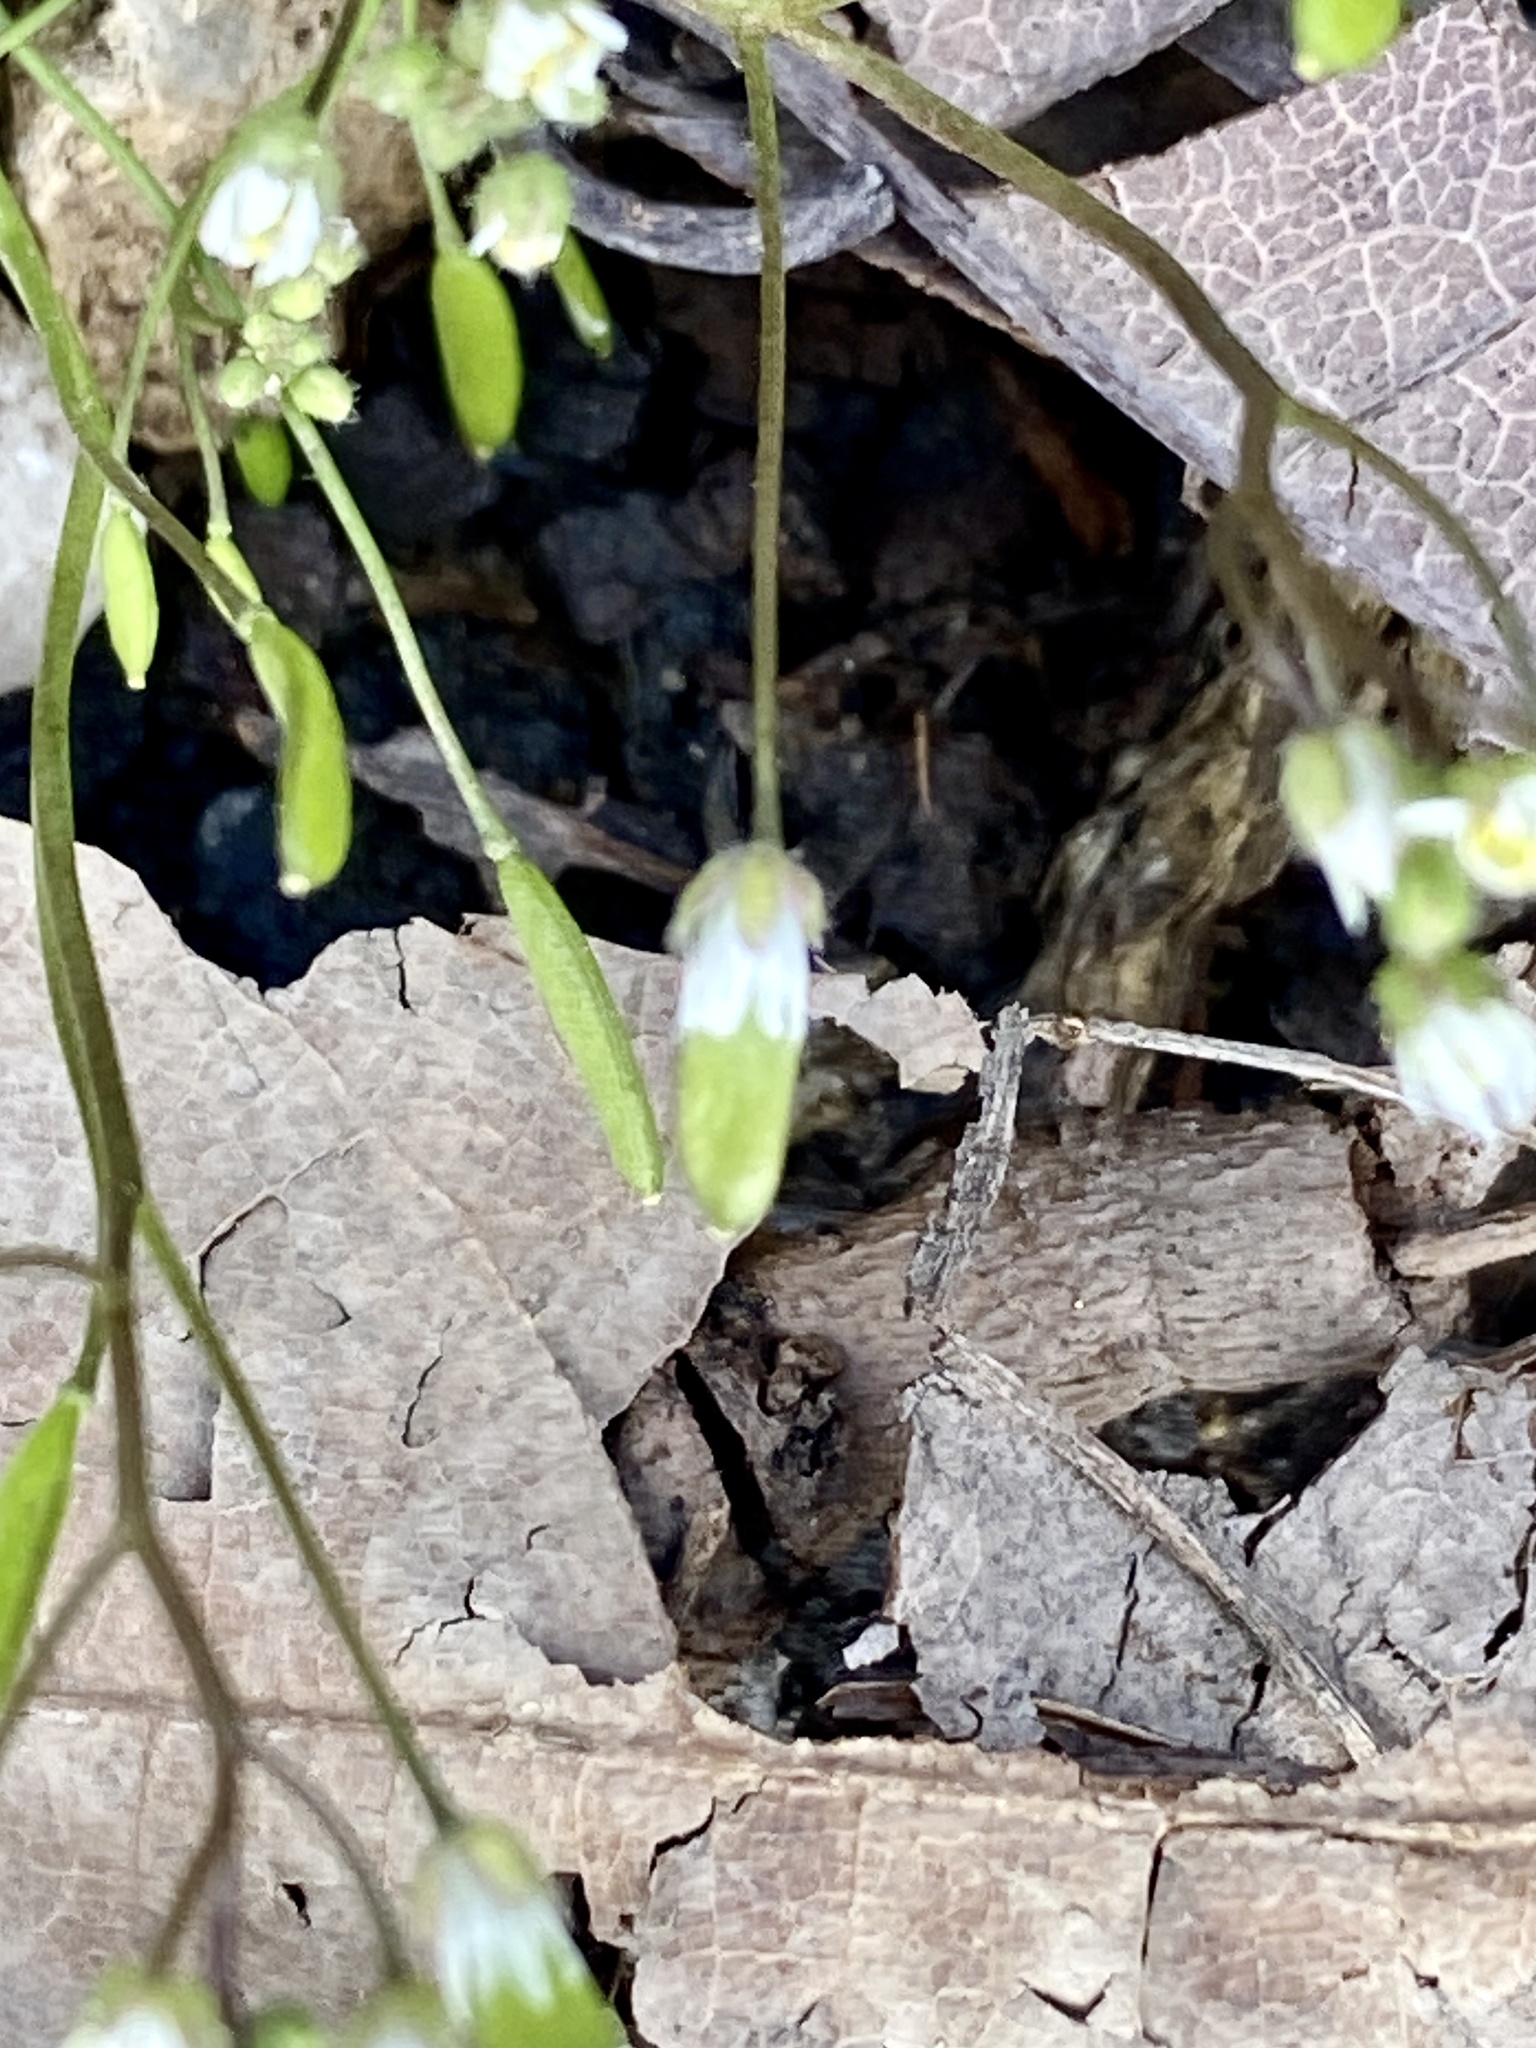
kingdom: Plantae
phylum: Tracheophyta
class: Magnoliopsida
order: Brassicales
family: Brassicaceae
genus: Draba
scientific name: Draba verna
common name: Spring draba
